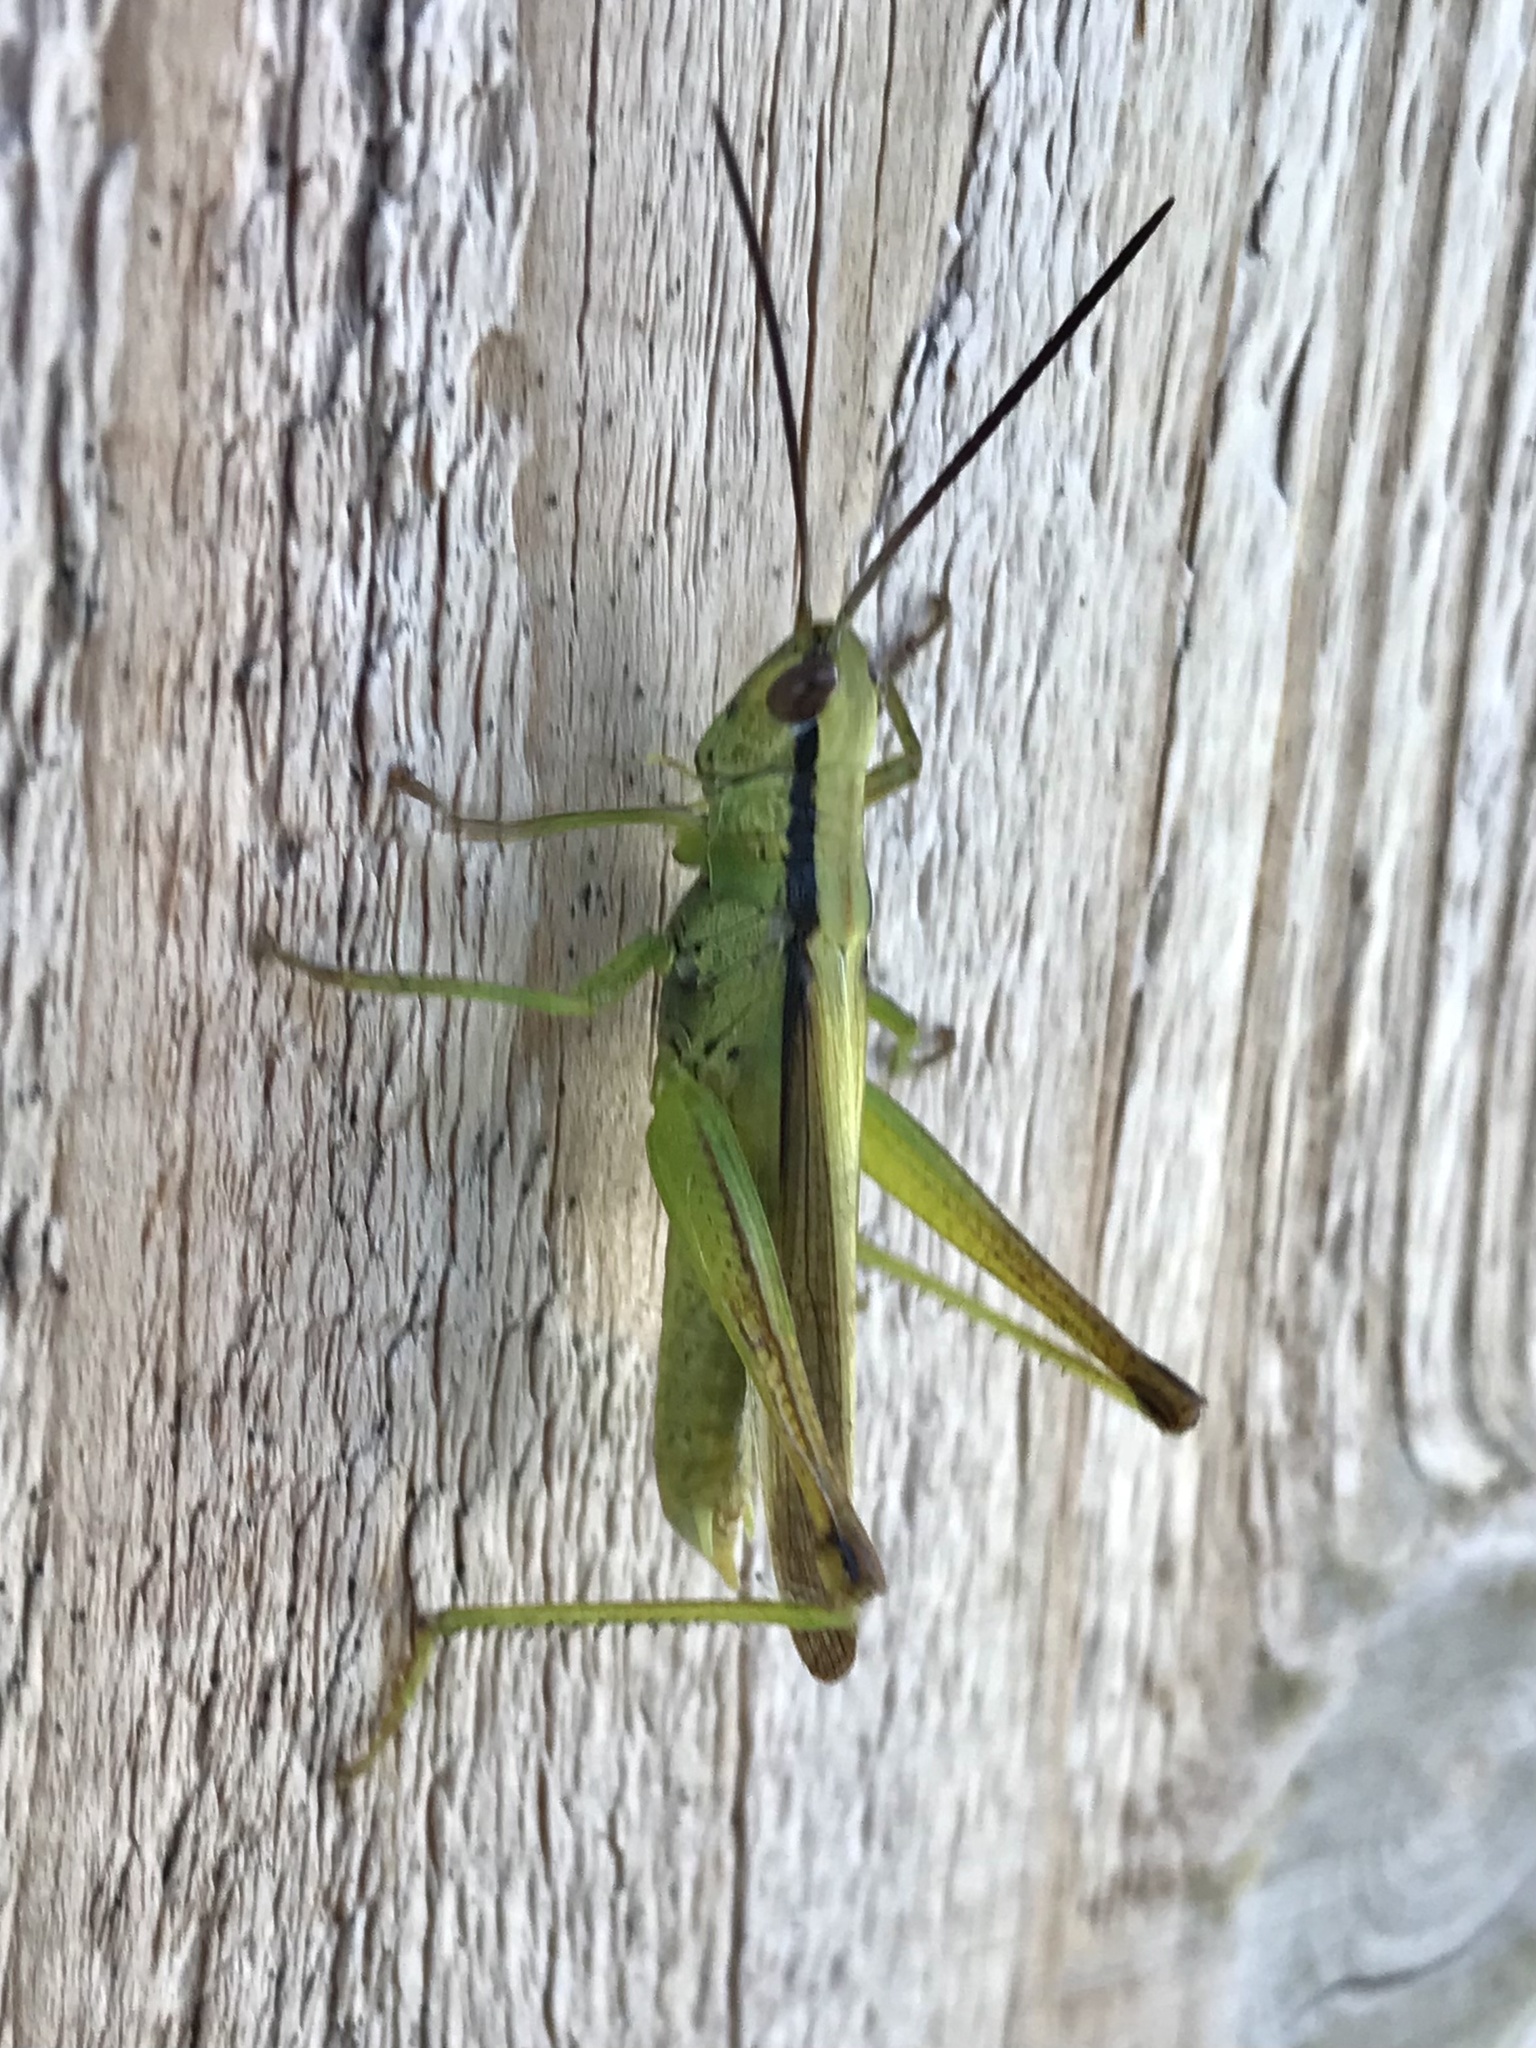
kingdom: Animalia
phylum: Arthropoda
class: Insecta
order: Orthoptera
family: Acrididae
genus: Mecostethus
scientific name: Mecostethus parapleurus
